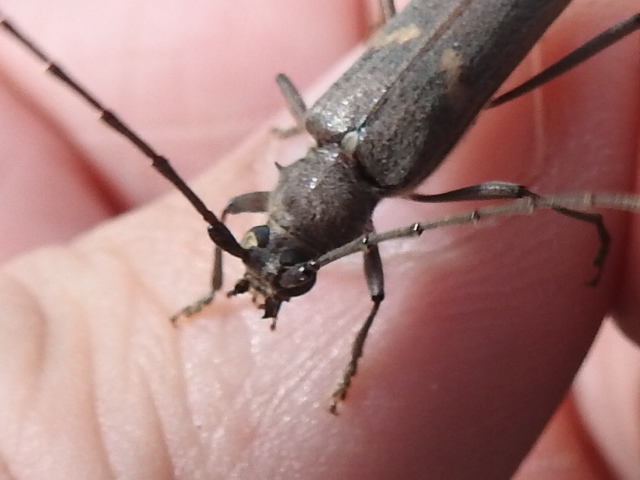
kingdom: Animalia
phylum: Arthropoda
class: Insecta
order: Coleoptera
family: Cerambycidae
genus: Knulliana
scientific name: Knulliana cincta
